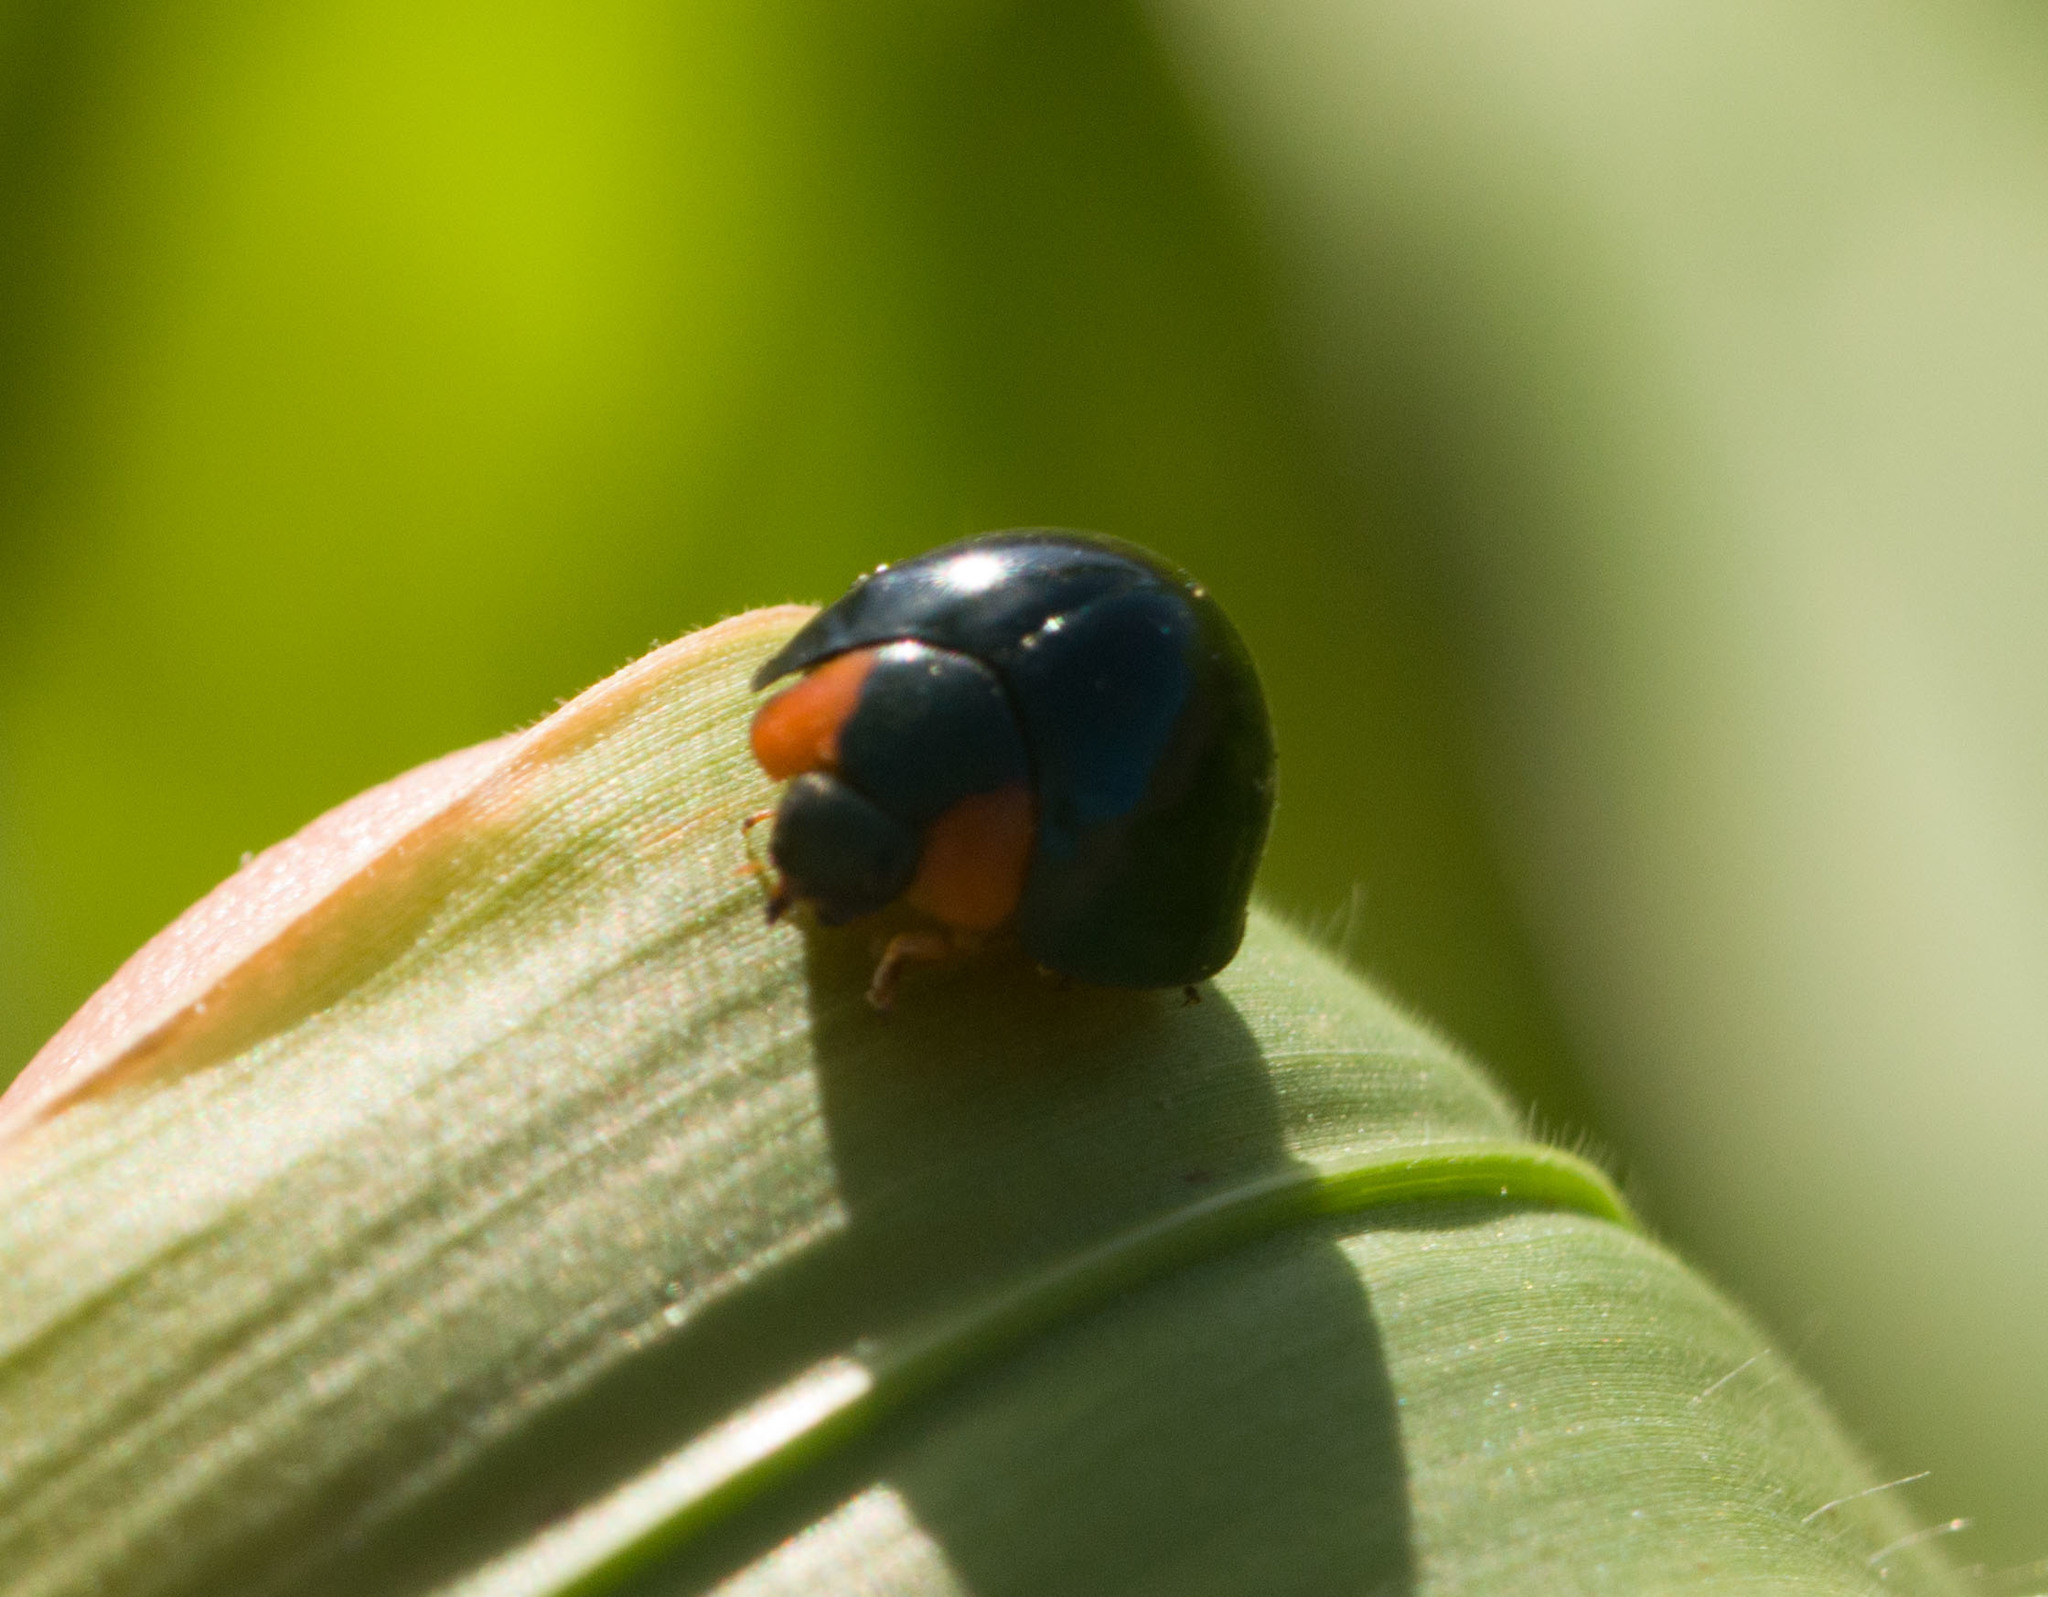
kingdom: Animalia
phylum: Arthropoda
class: Insecta
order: Coleoptera
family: Coccinellidae
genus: Curinus
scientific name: Curinus coeruleus
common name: Ladybird beetle
